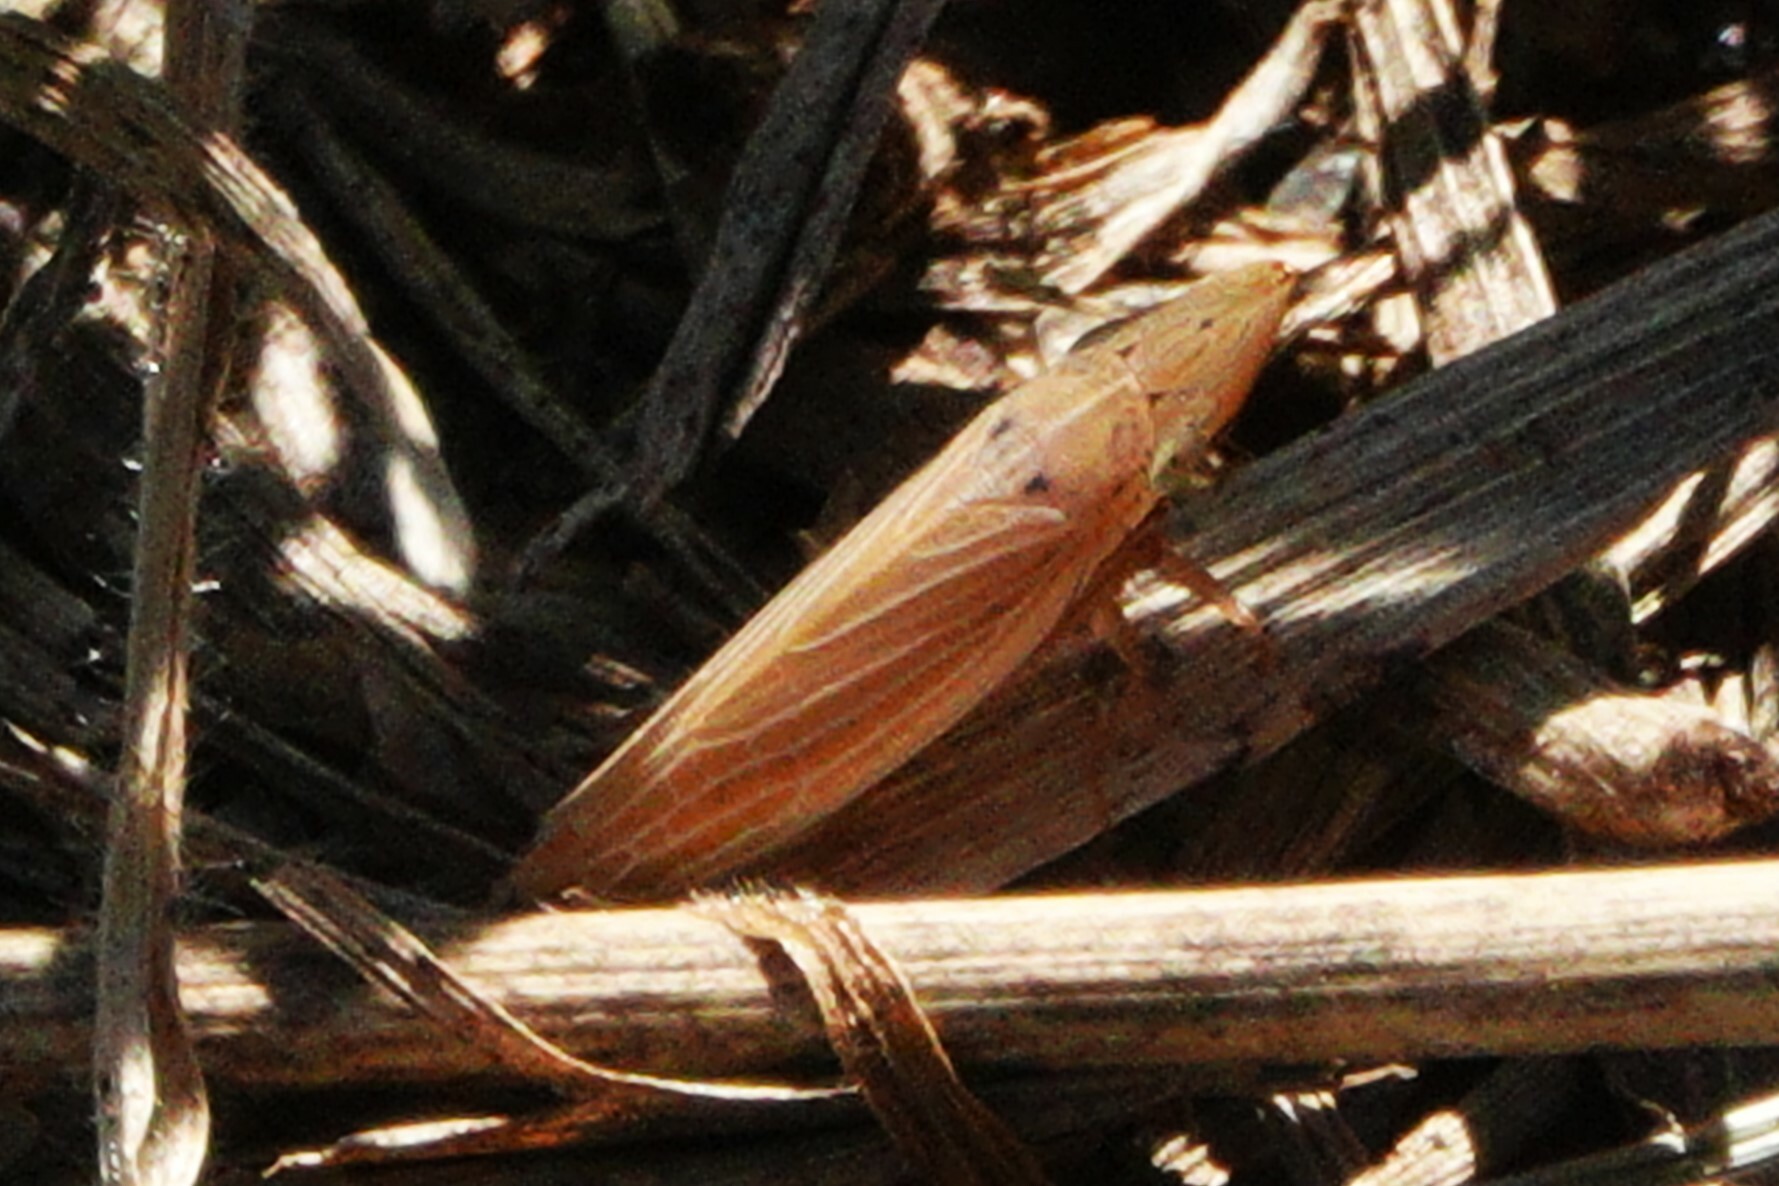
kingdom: Animalia
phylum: Arthropoda
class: Insecta
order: Hemiptera
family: Cicadellidae
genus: Draeculacephala
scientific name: Draeculacephala septemguttata
